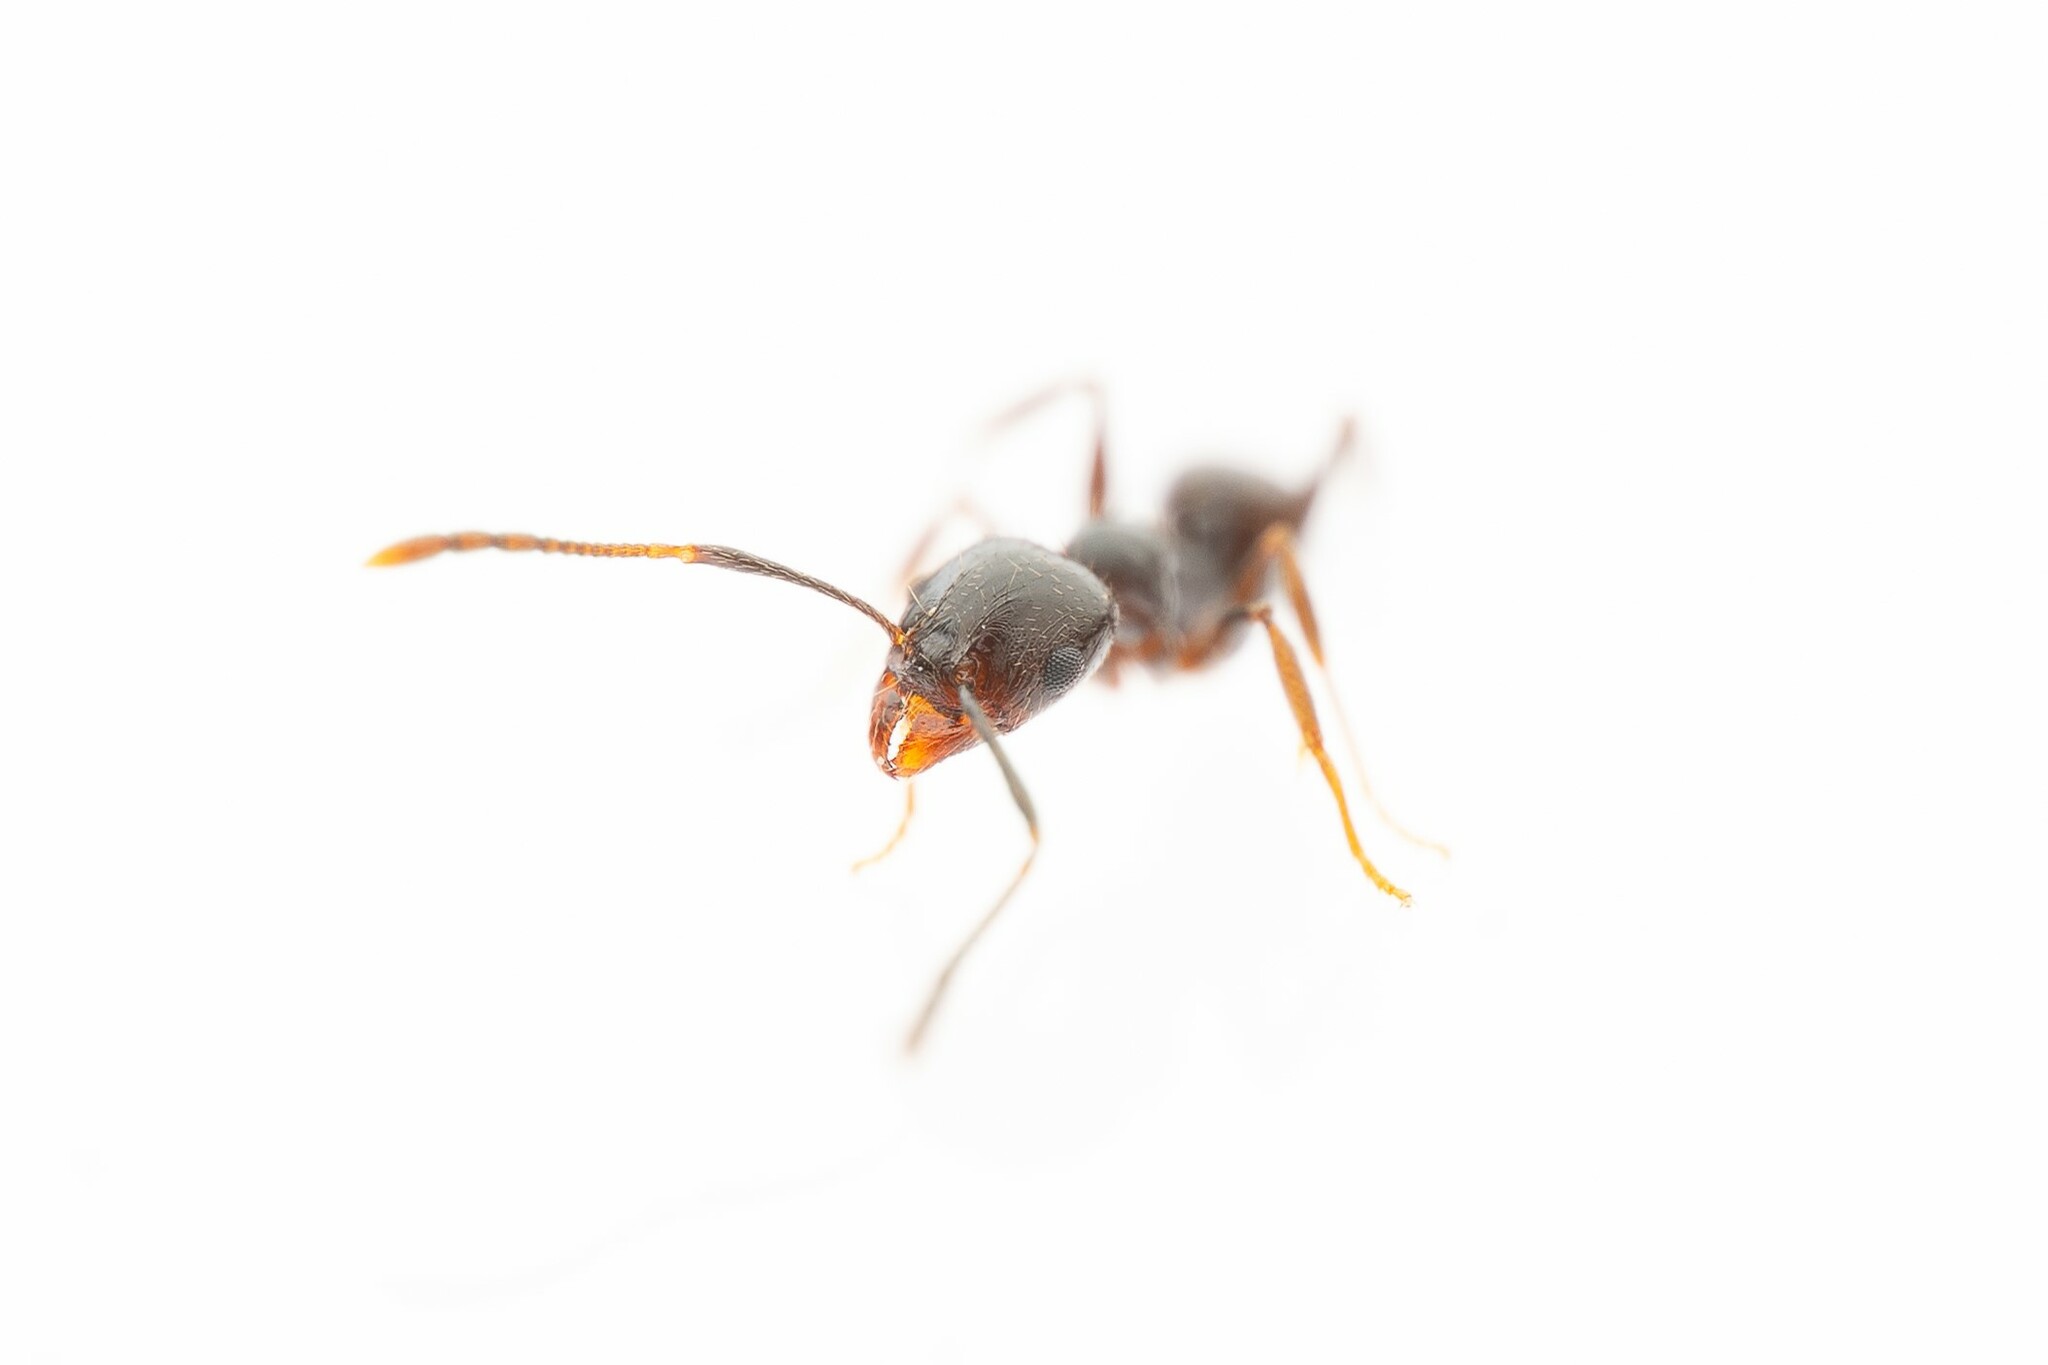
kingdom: Animalia
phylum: Arthropoda
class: Insecta
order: Hymenoptera
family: Formicidae
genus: Pheidole
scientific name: Pheidole
